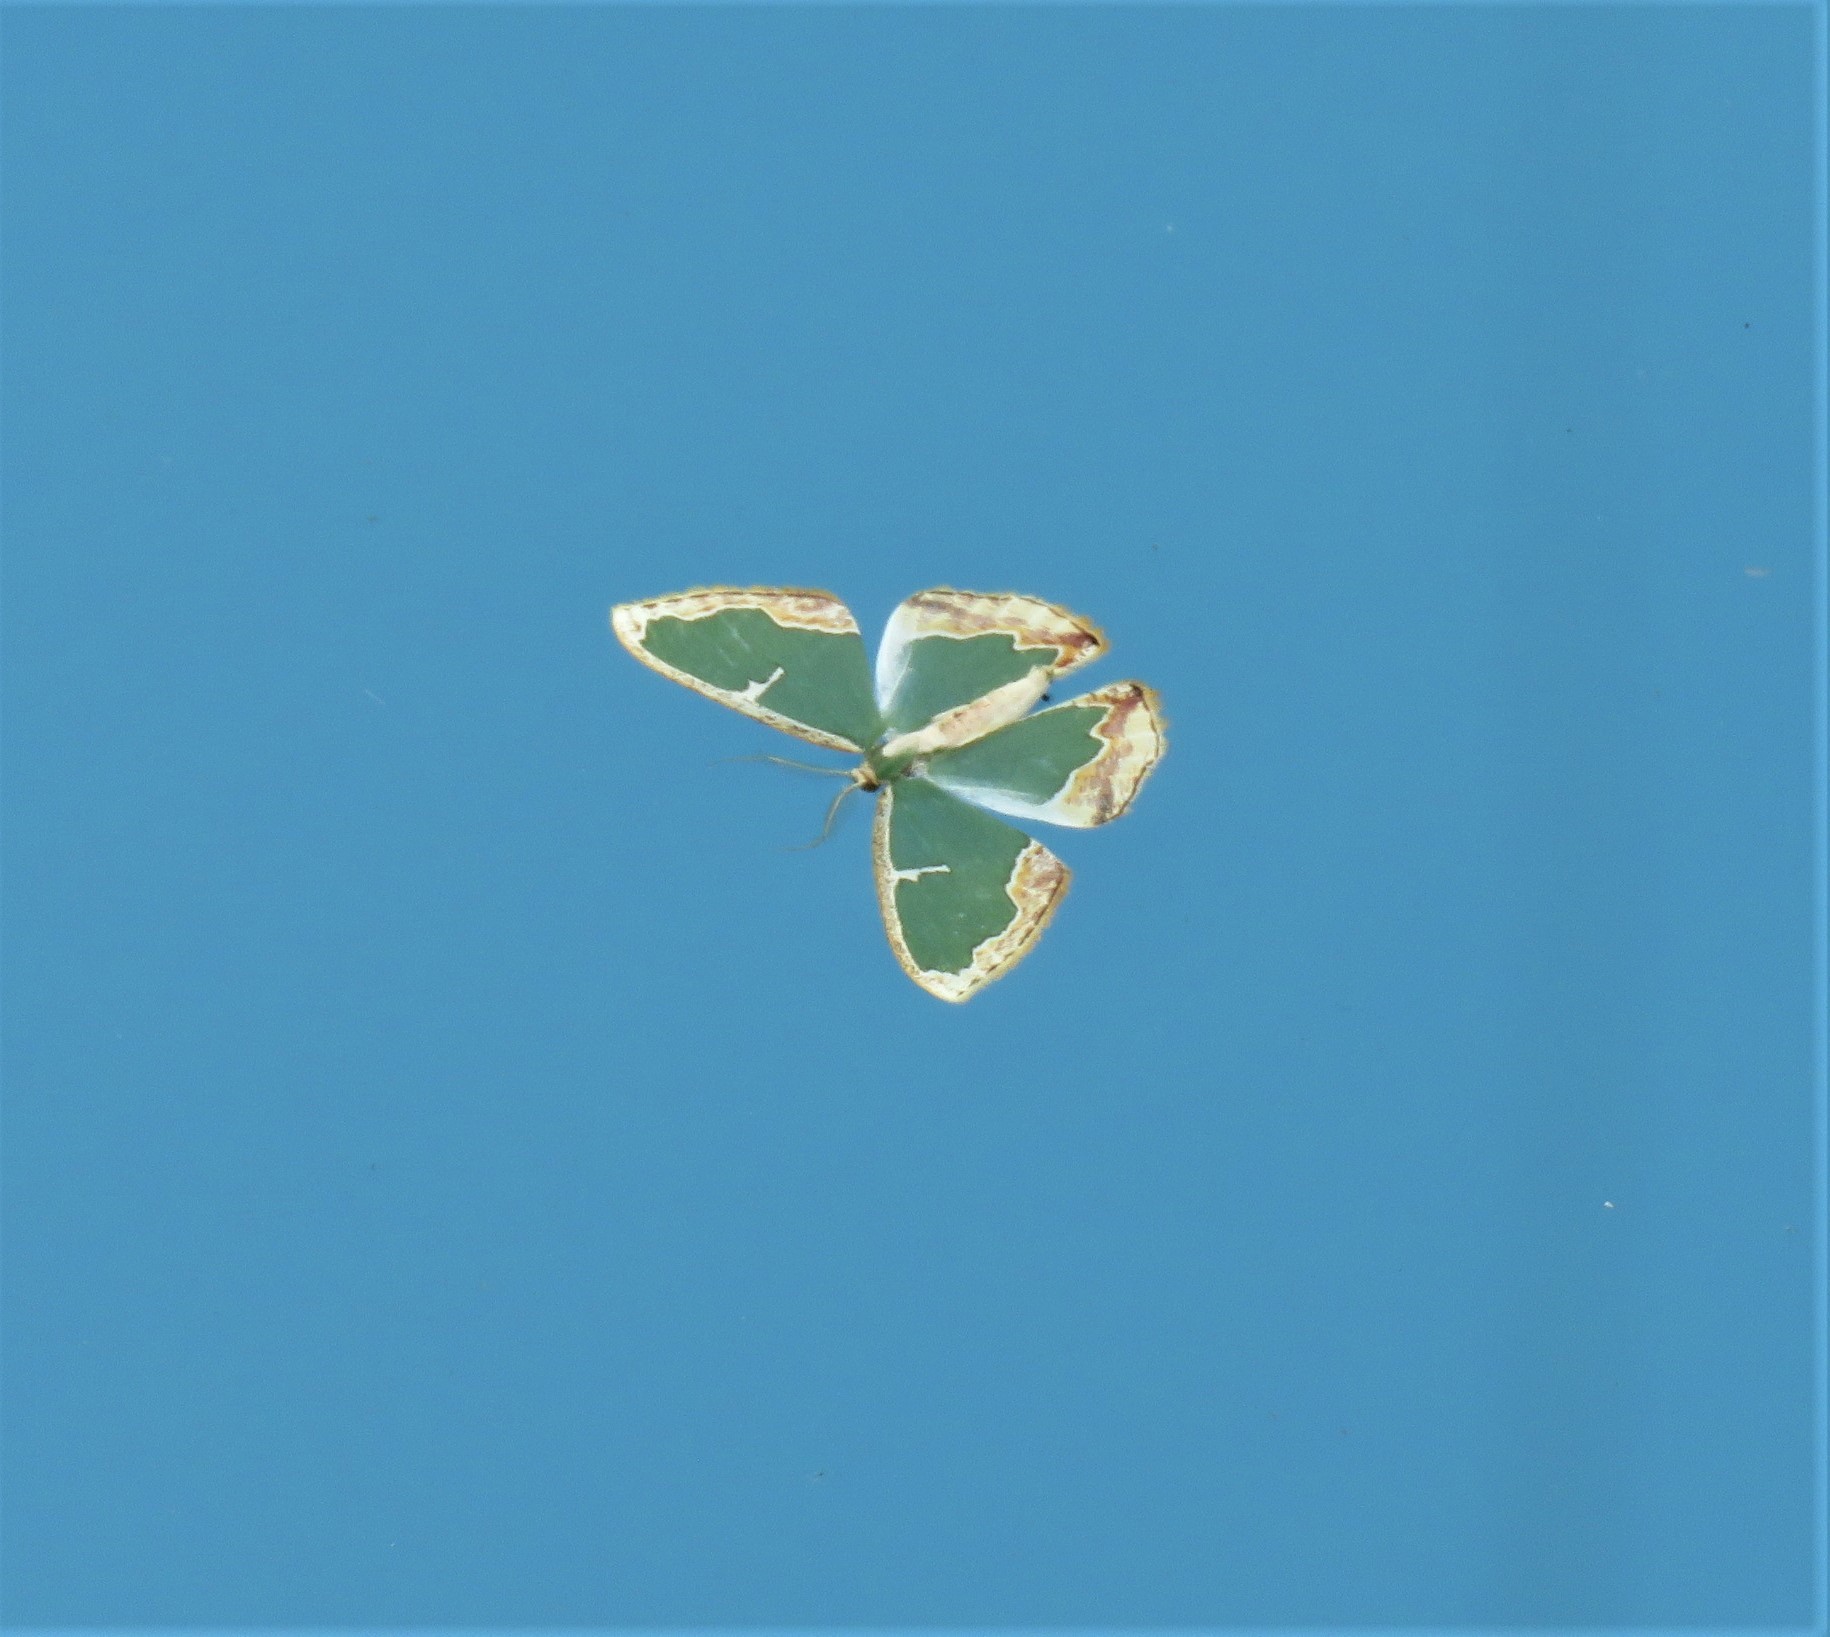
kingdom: Animalia
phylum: Arthropoda
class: Insecta
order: Lepidoptera
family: Geometridae
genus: Oospila
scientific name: Oospila venezuelata
